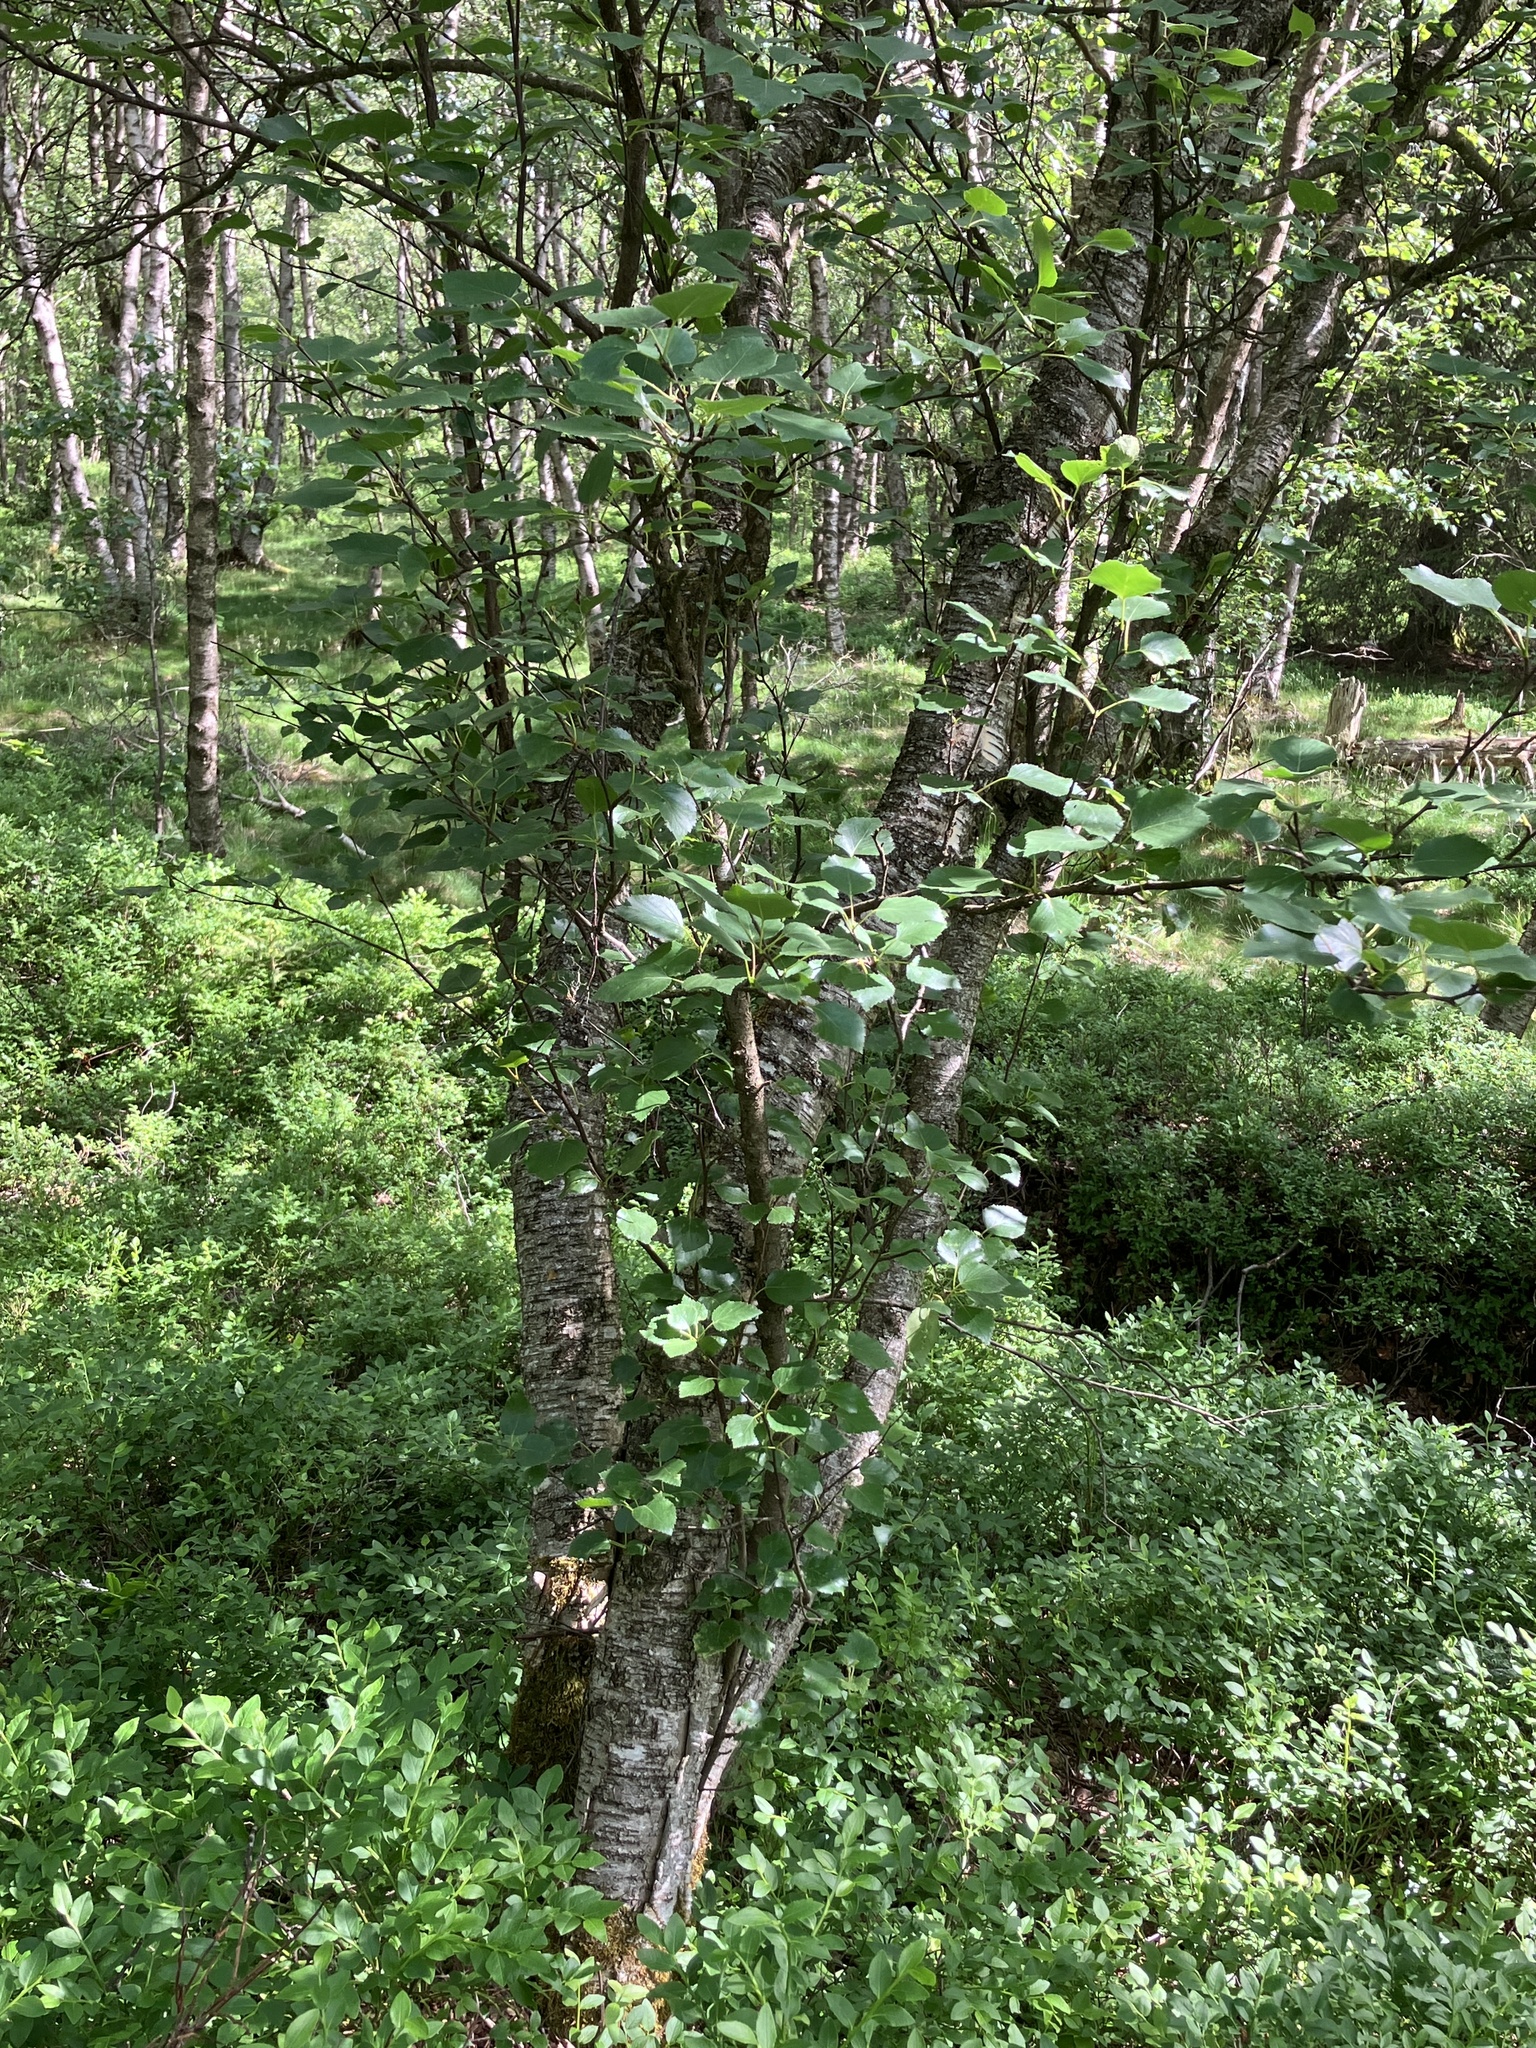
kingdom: Plantae
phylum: Tracheophyta
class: Magnoliopsida
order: Fagales
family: Betulaceae
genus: Betula
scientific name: Betula pubescens
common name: Downy birch
